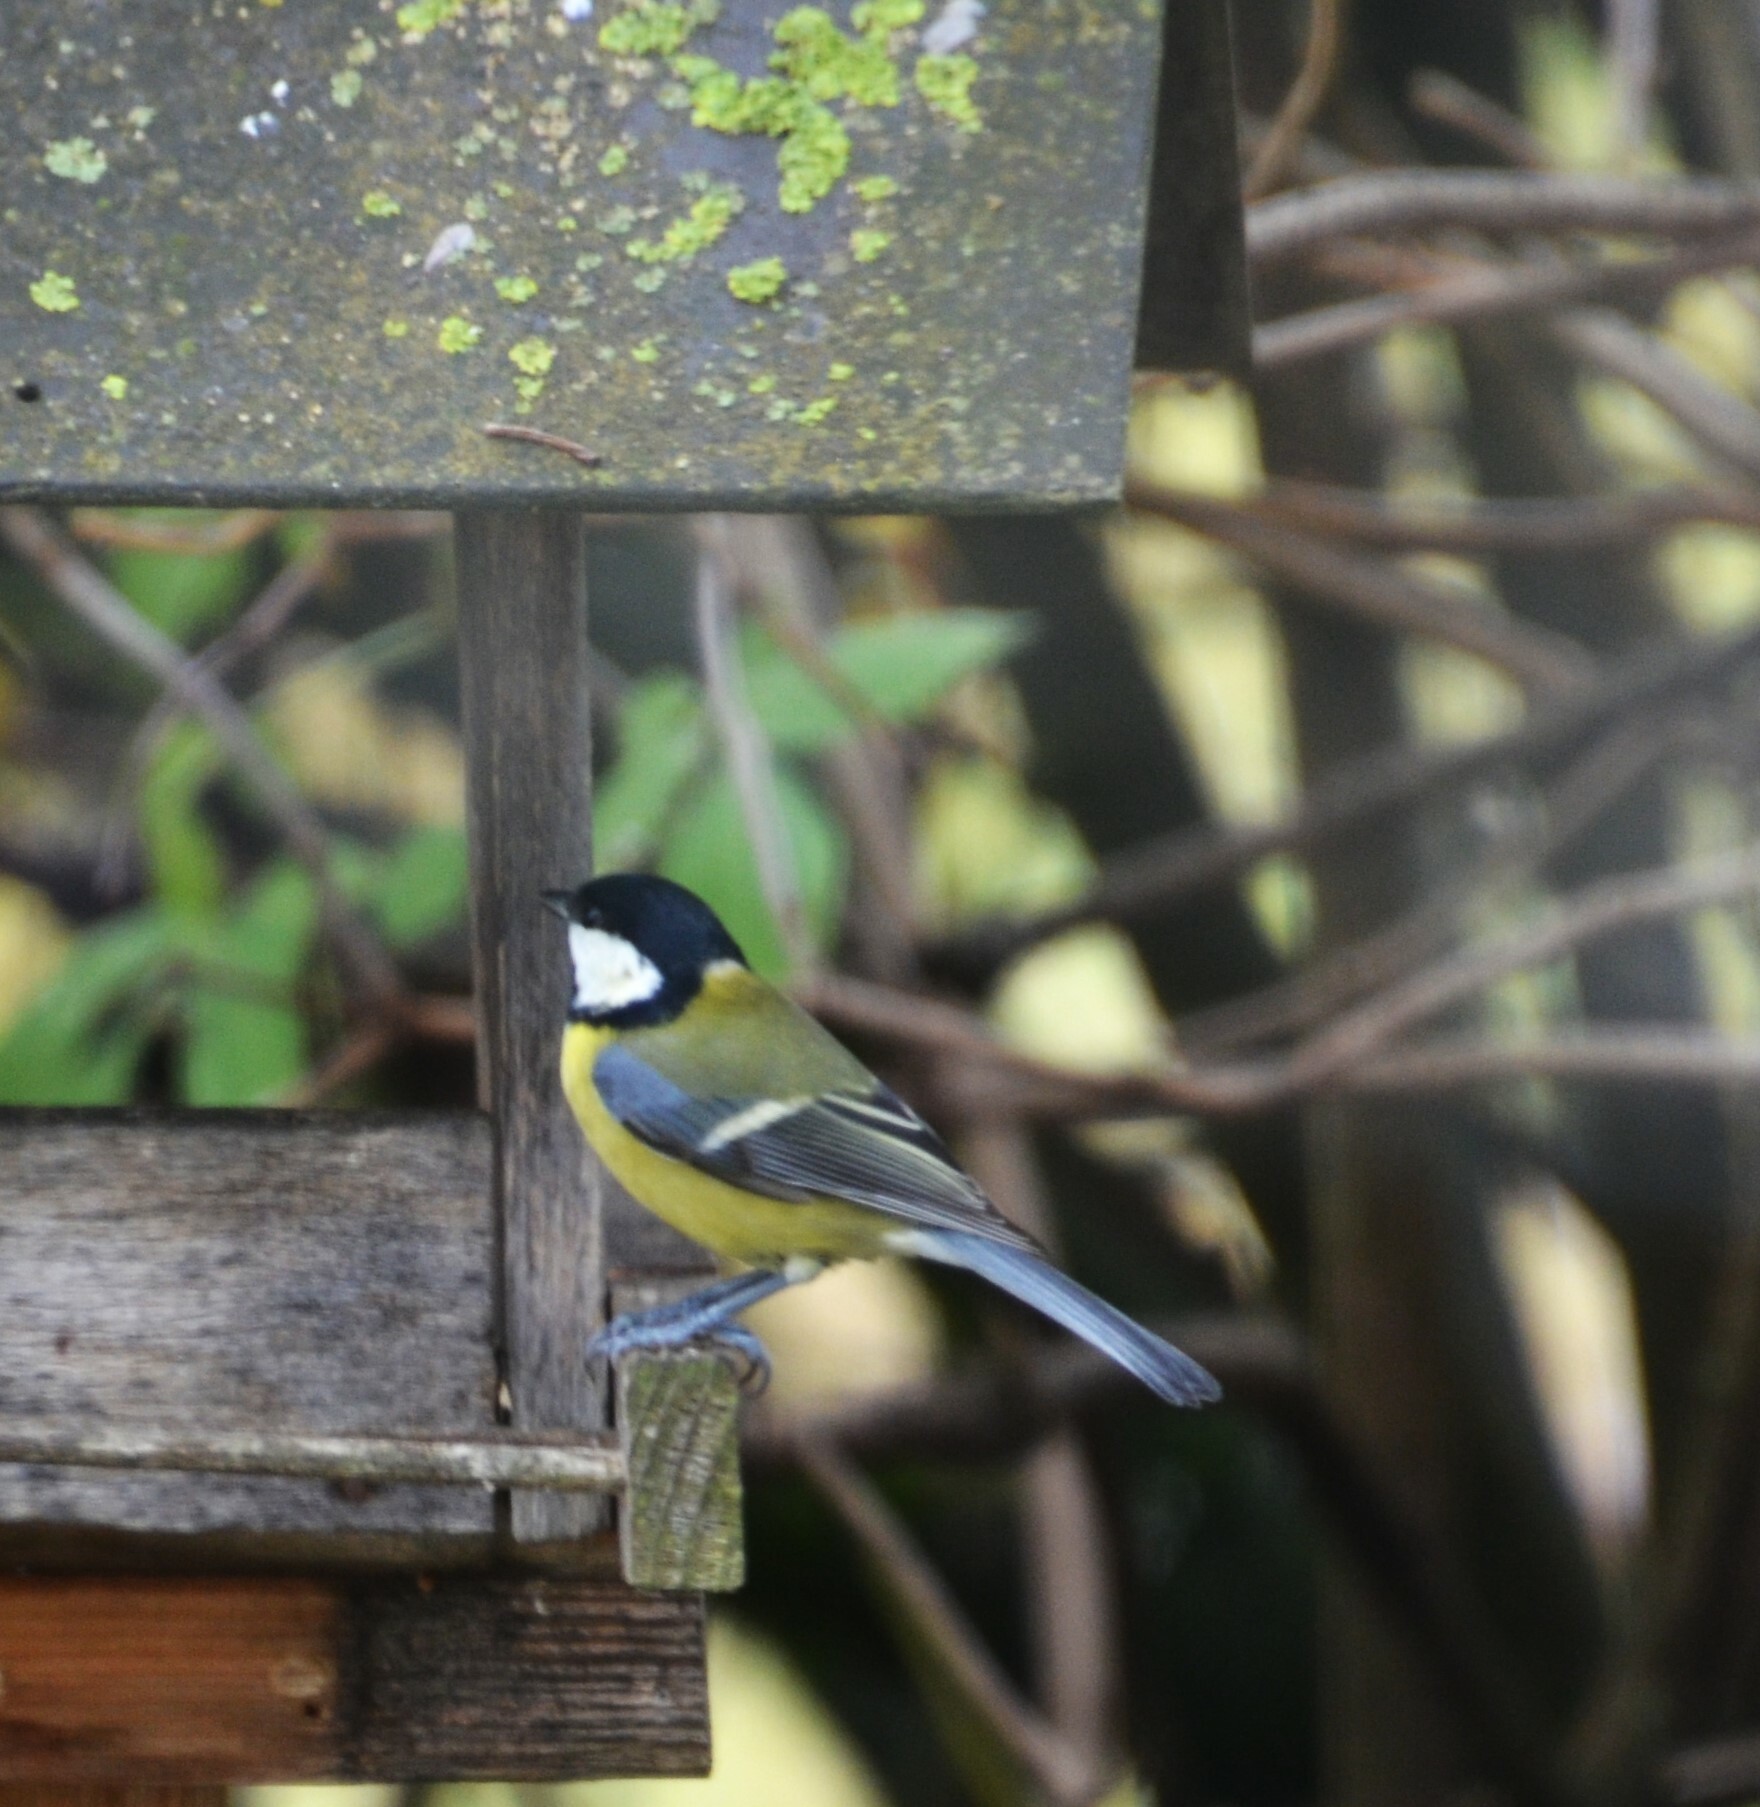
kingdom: Animalia
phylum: Chordata
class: Aves
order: Passeriformes
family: Paridae
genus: Parus
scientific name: Parus major
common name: Great tit
